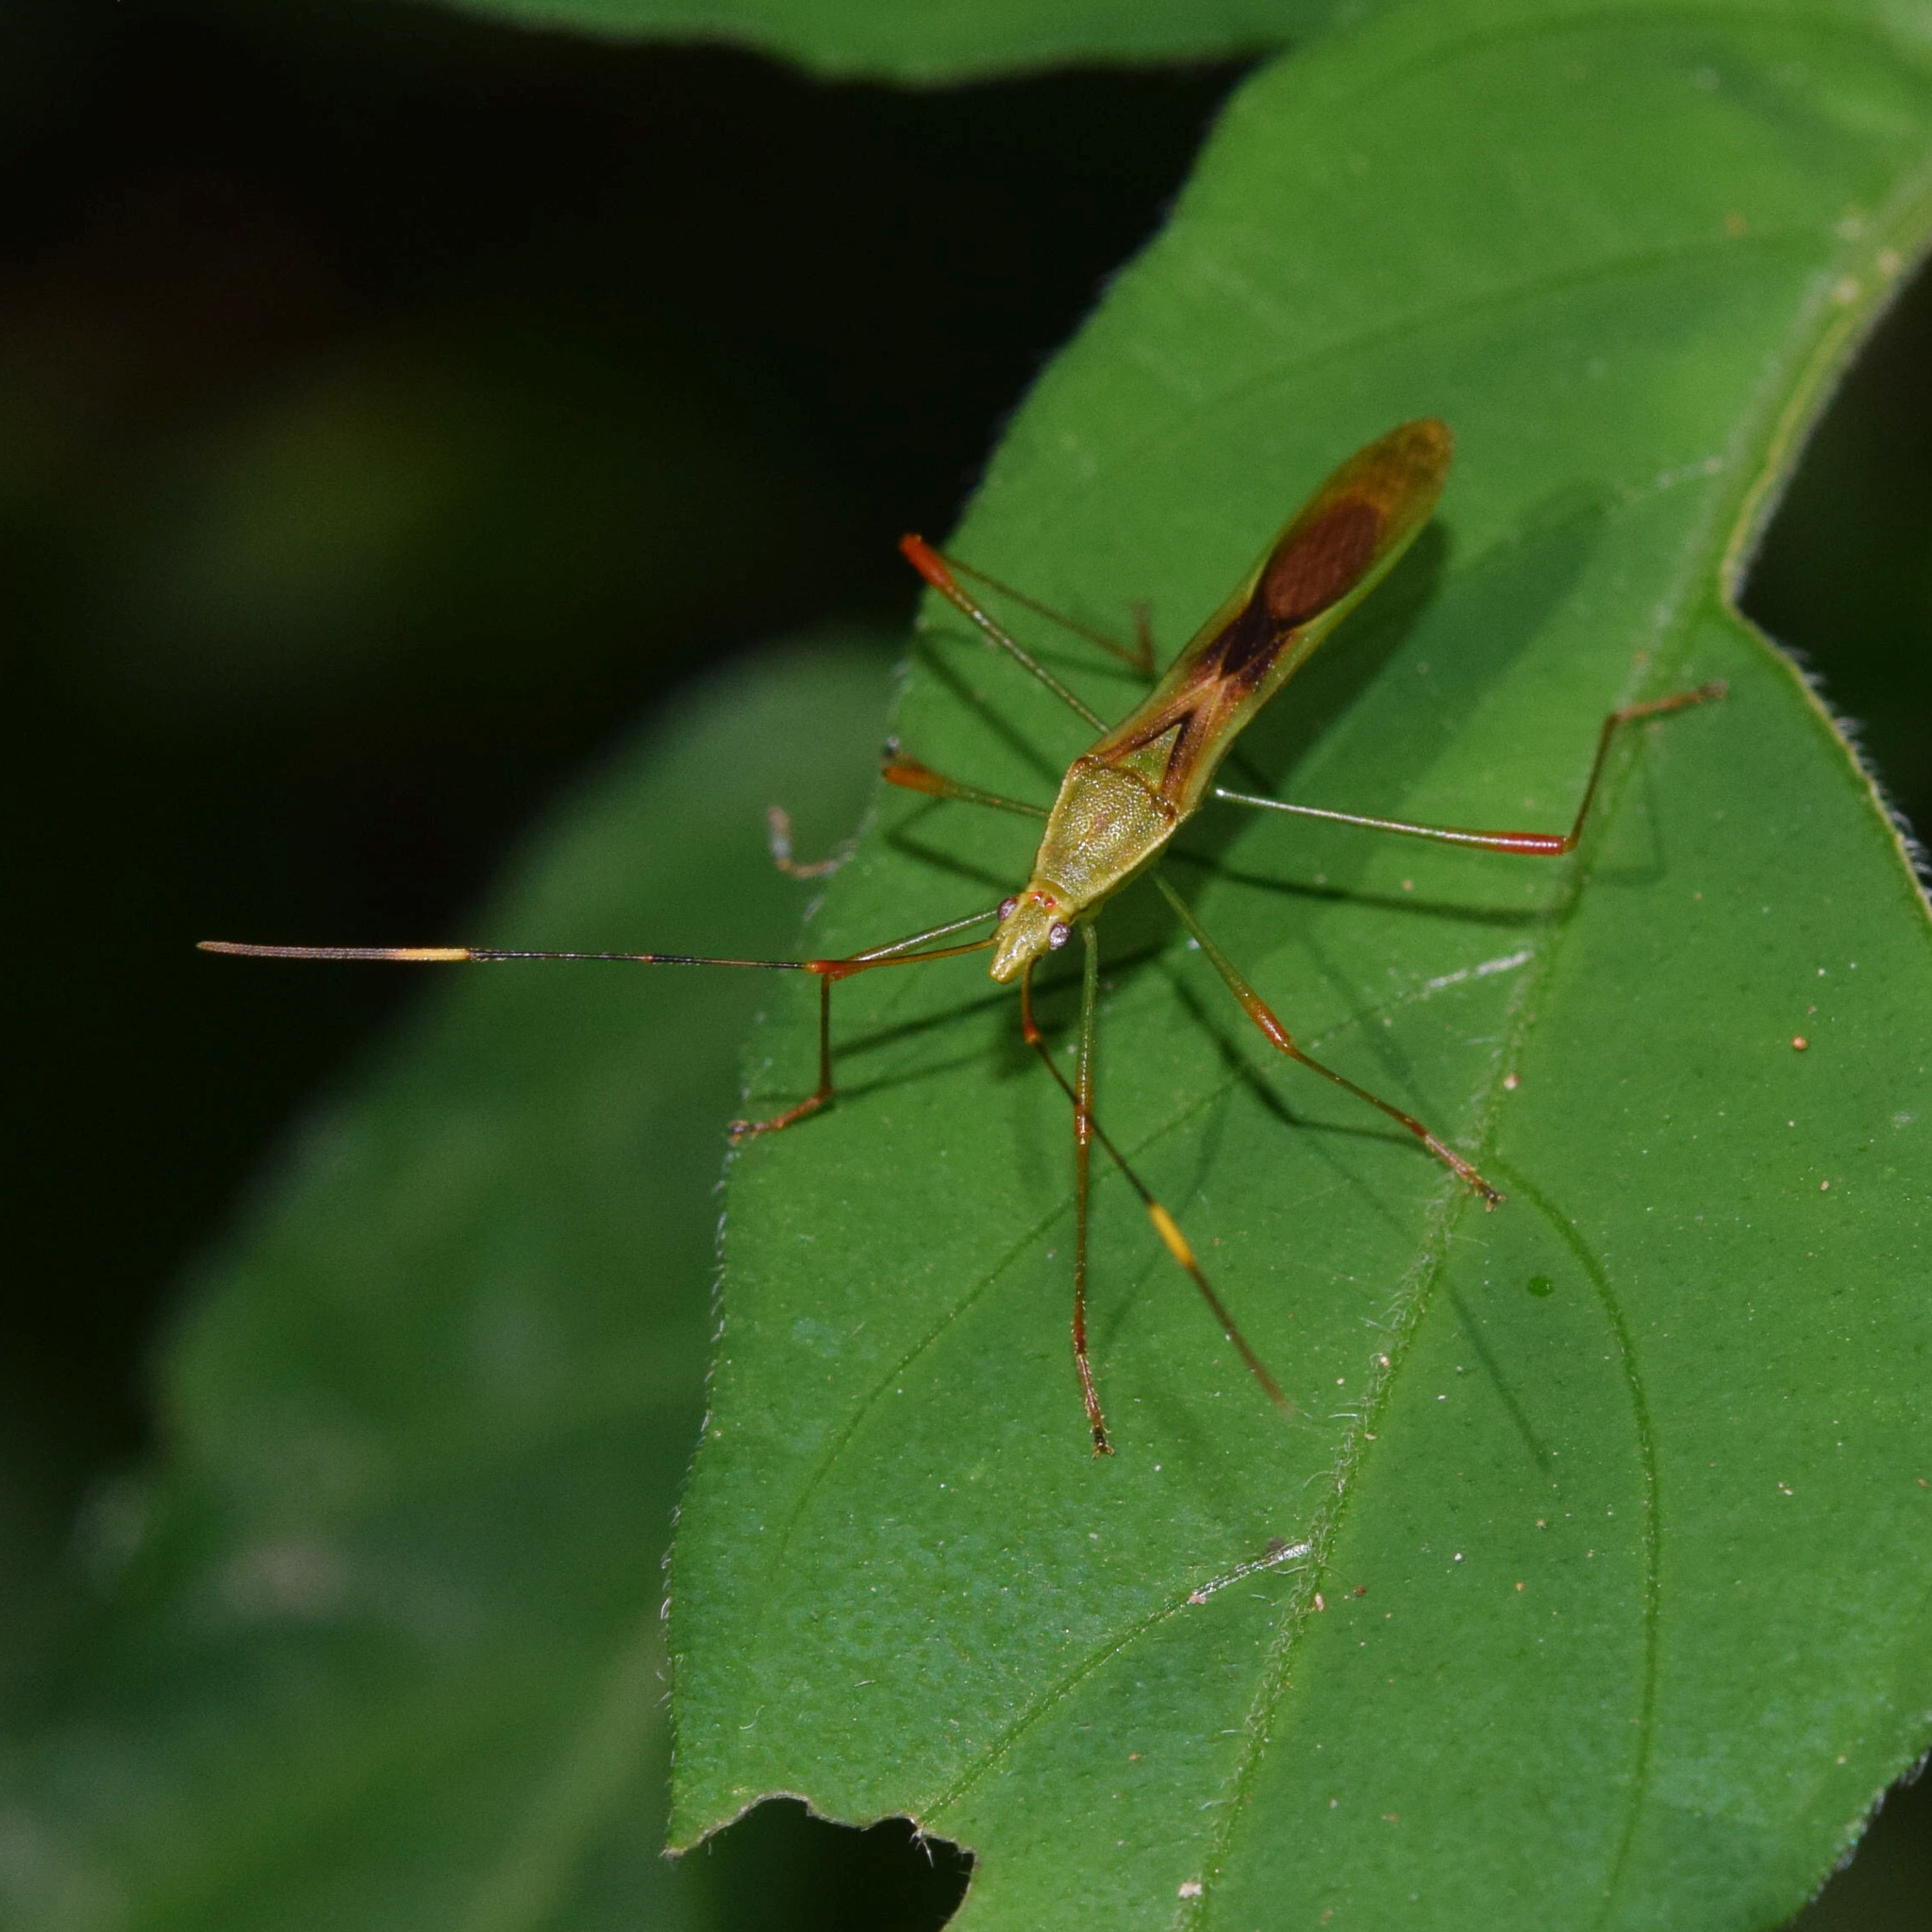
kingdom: Animalia
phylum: Arthropoda
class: Insecta
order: Hemiptera
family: Alydidae
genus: Stenocoris
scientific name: Stenocoris apicalis
